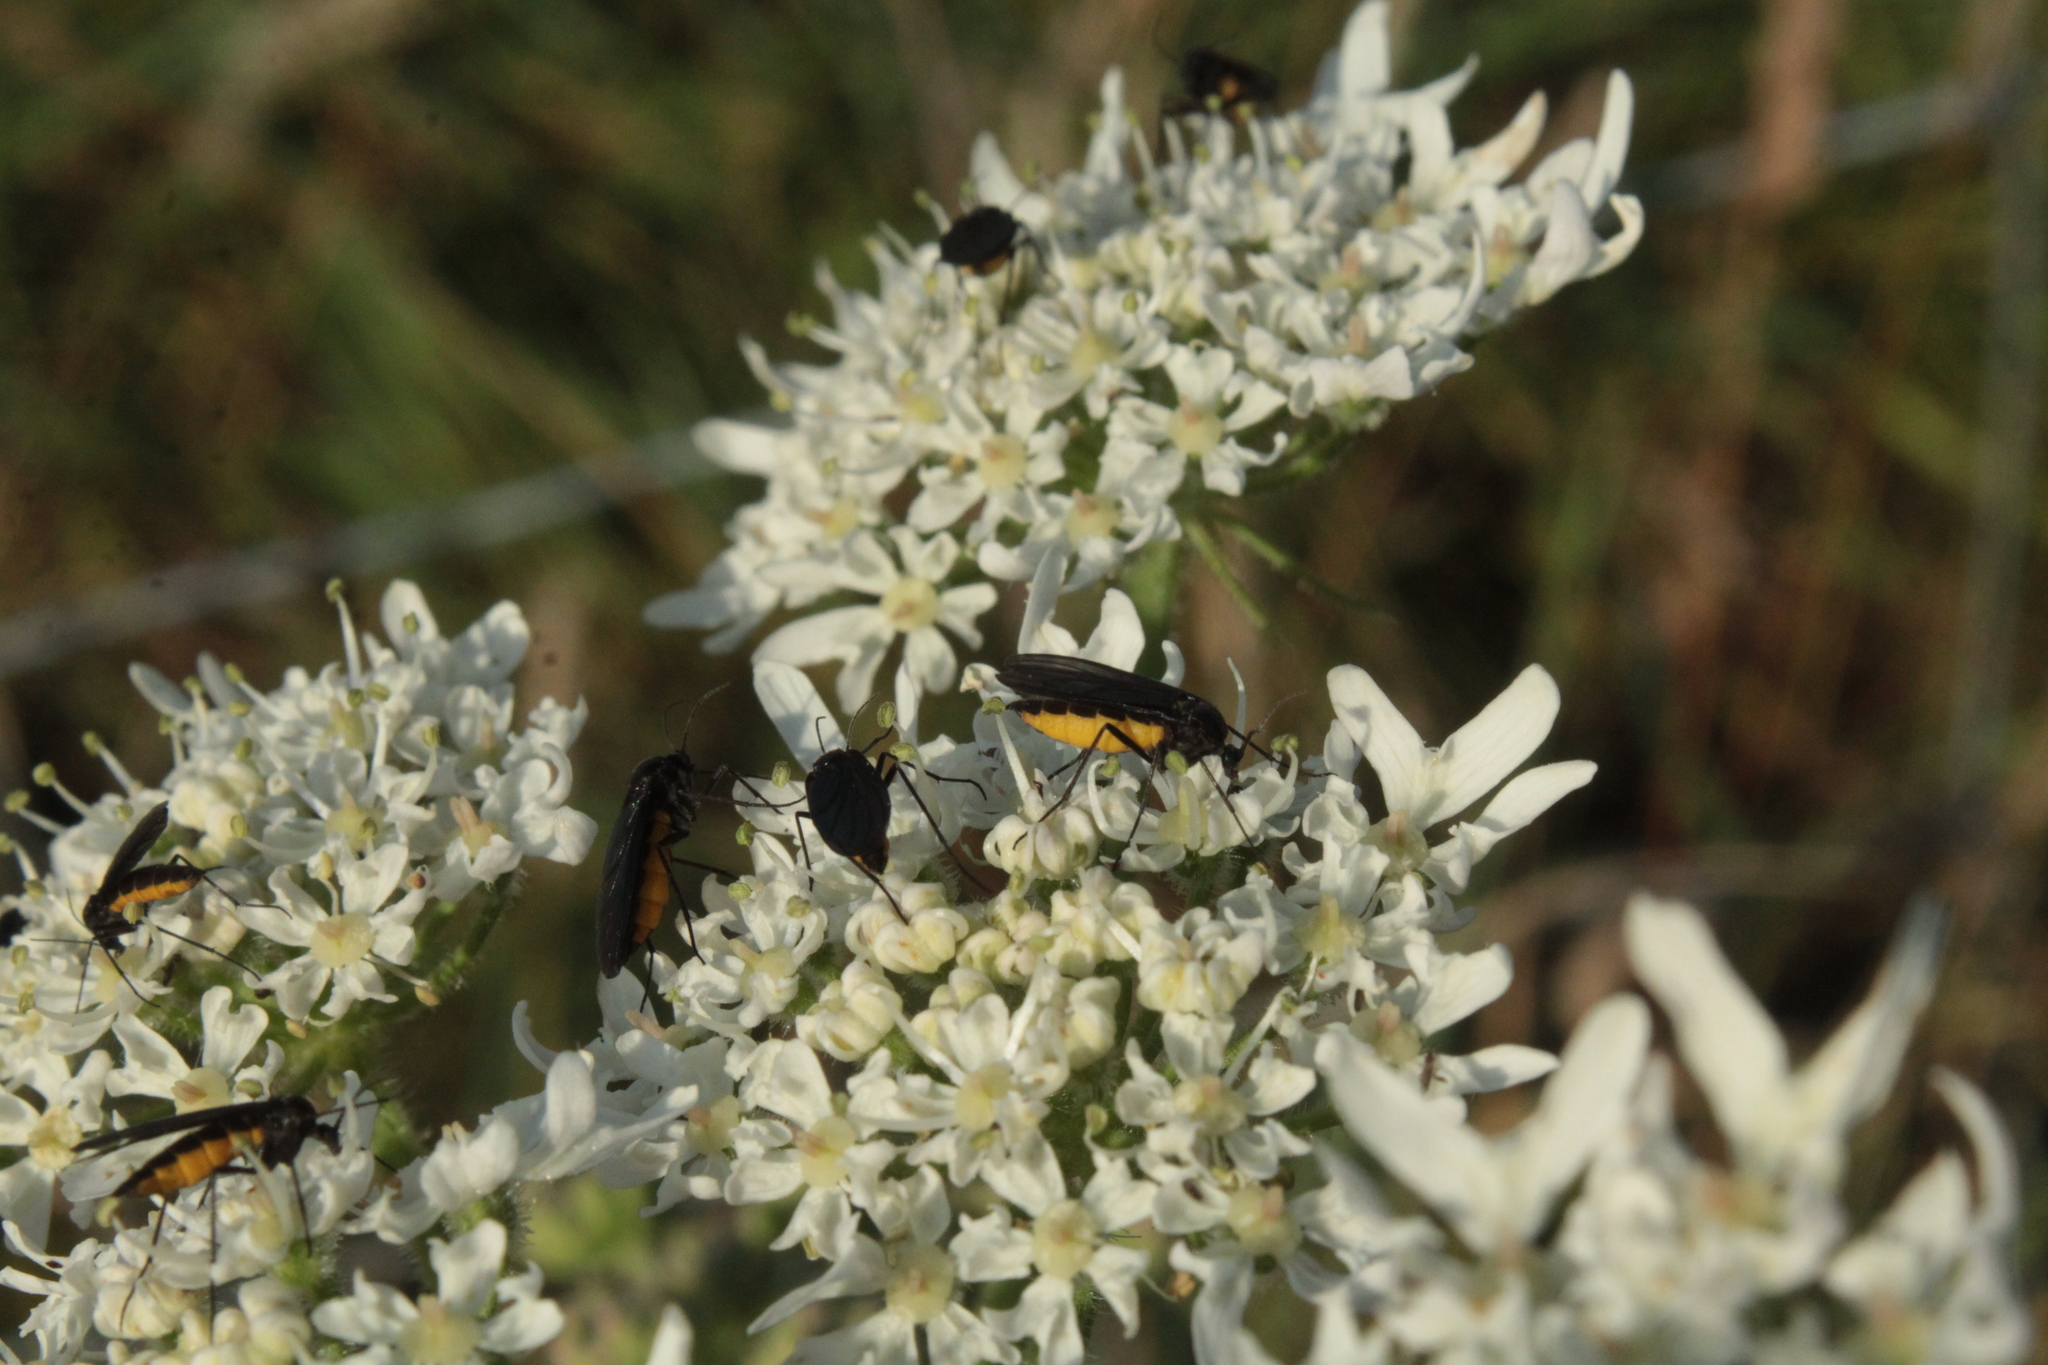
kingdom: Animalia
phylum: Arthropoda
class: Insecta
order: Diptera
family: Sciaridae
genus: Sciara
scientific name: Sciara hemerobioides
